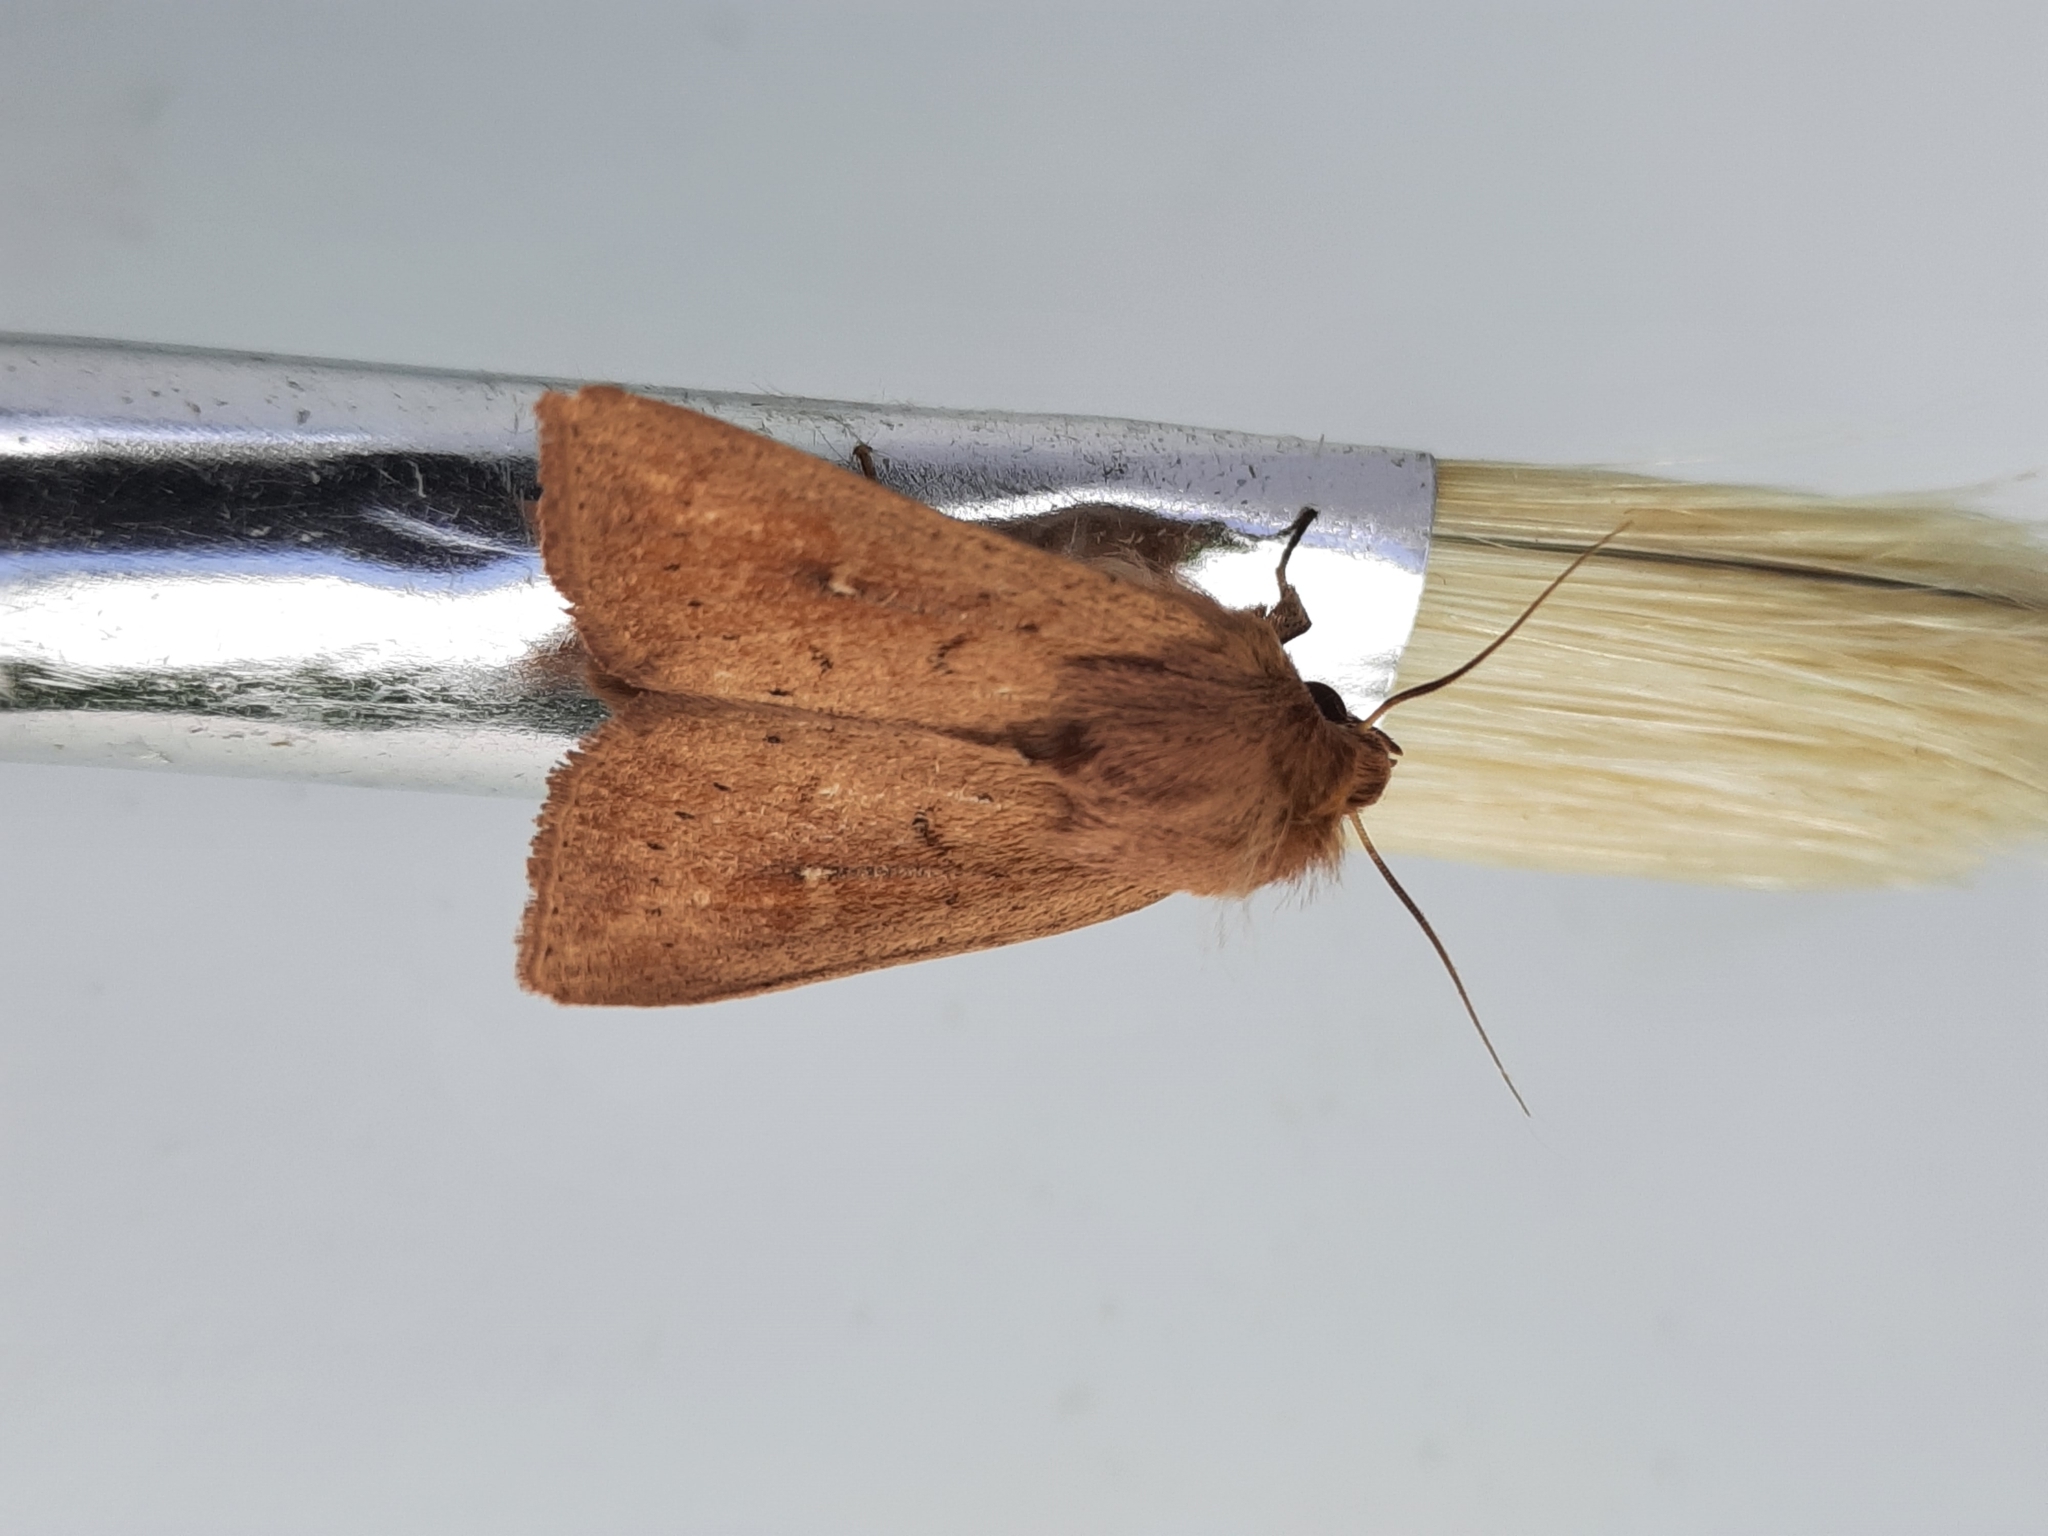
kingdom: Animalia
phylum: Arthropoda
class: Insecta
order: Lepidoptera
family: Noctuidae
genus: Mythimna
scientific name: Mythimna ferrago
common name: Clay
